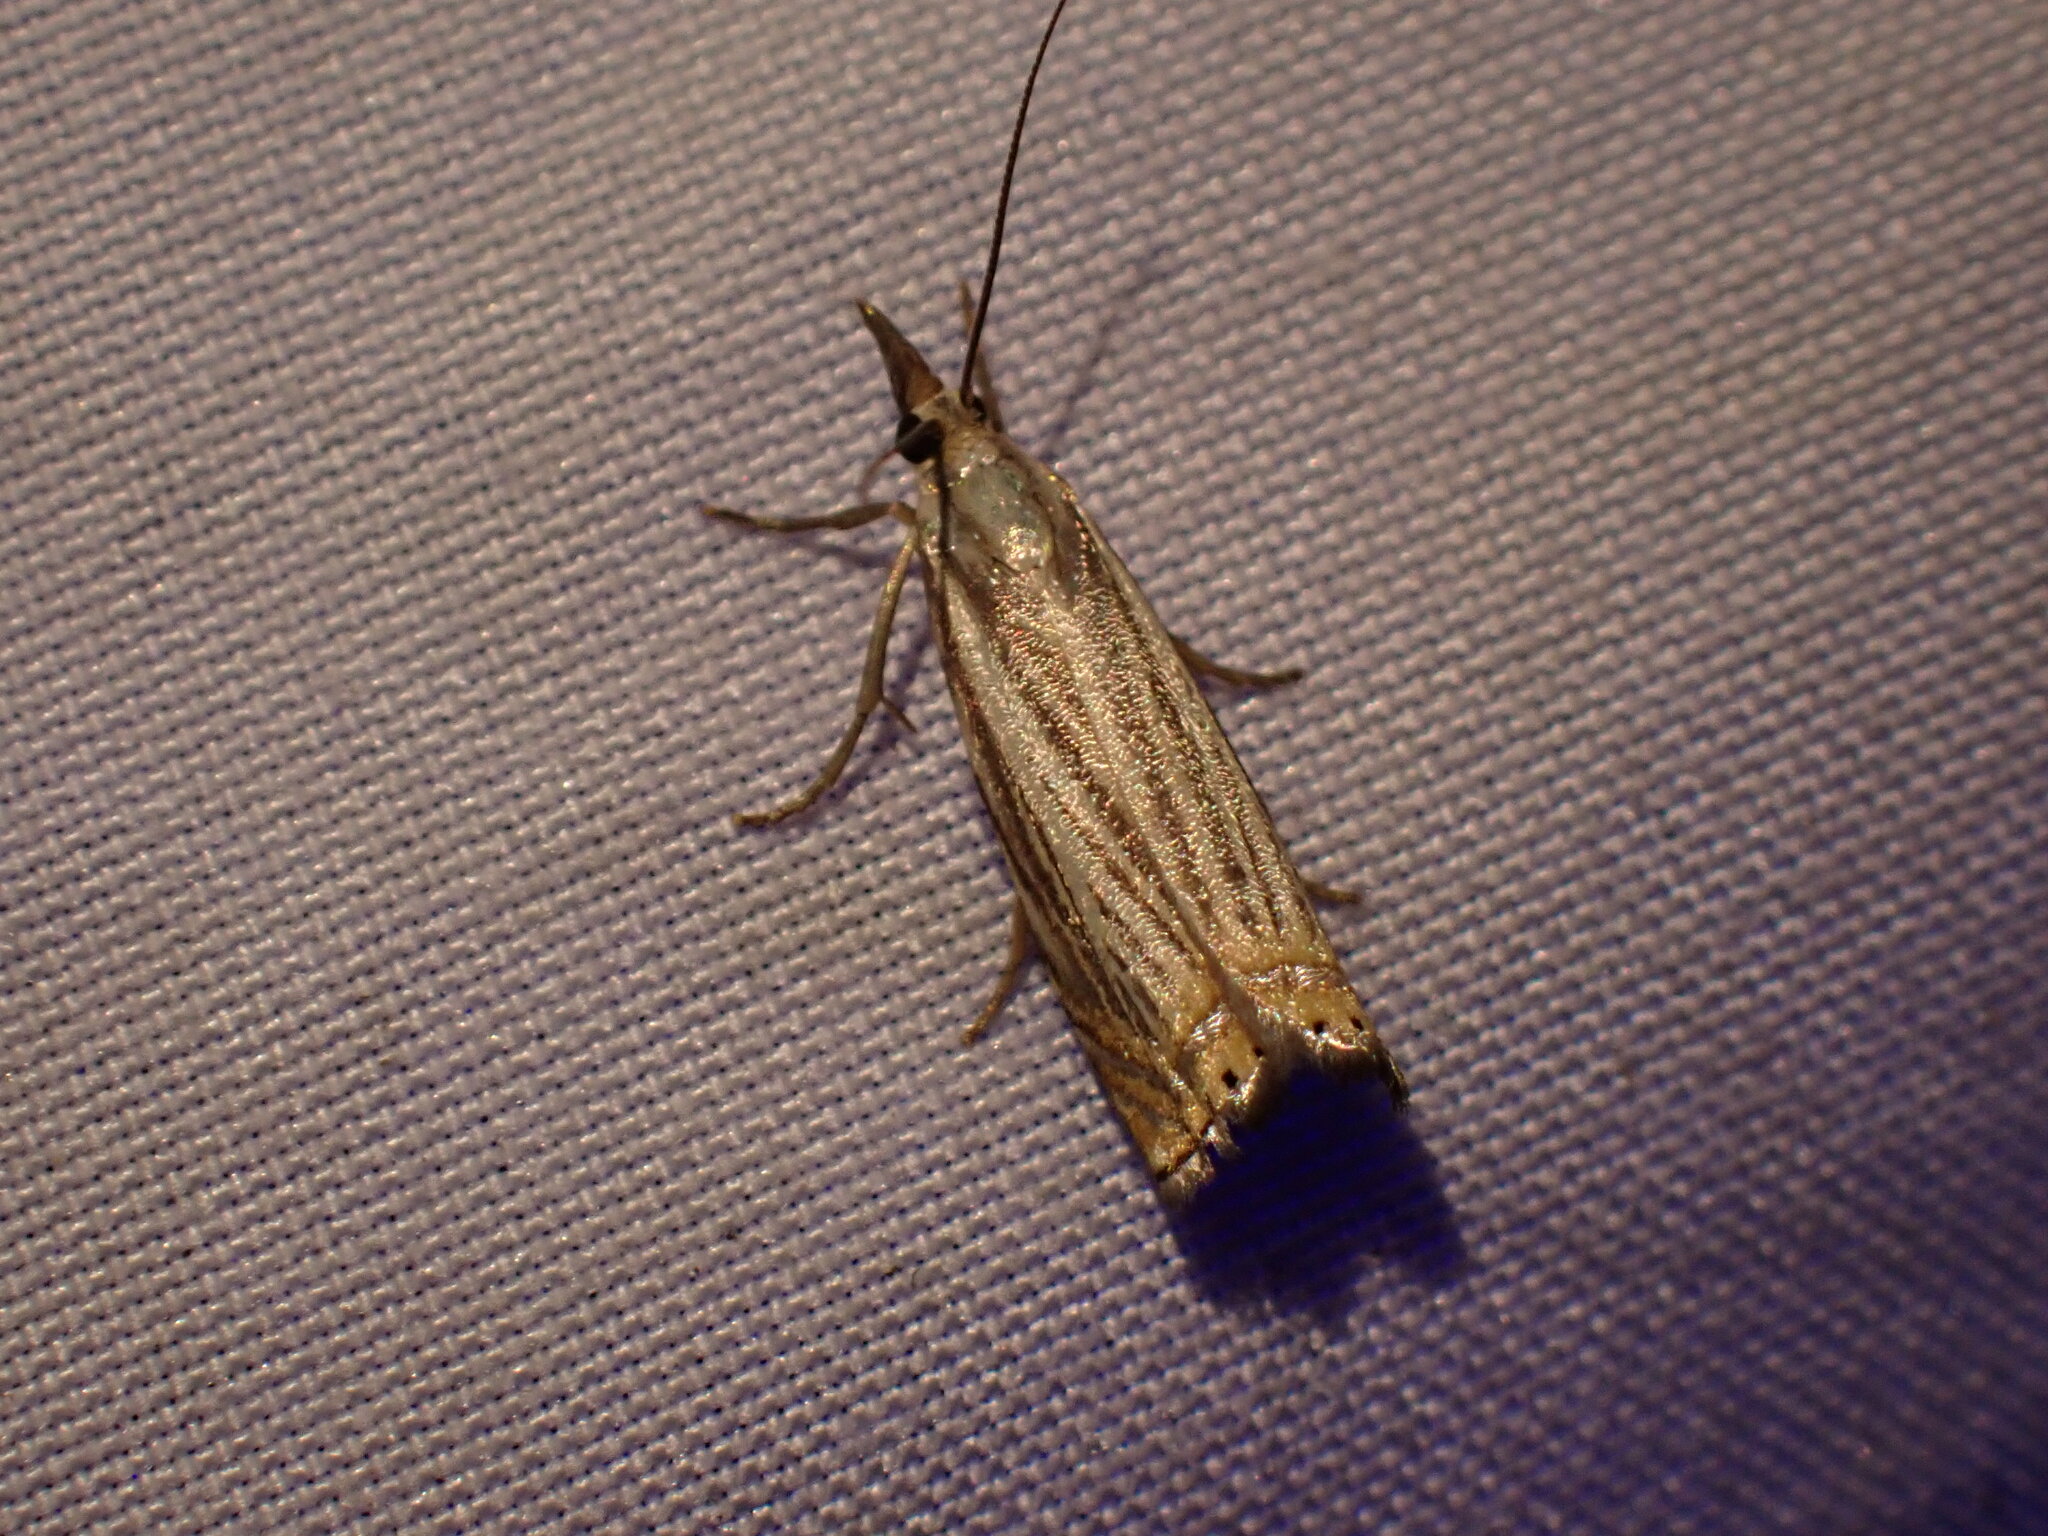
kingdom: Animalia
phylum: Arthropoda
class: Insecta
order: Lepidoptera
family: Crambidae
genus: Chrysoteuchia
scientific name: Chrysoteuchia topiarius
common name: Topiary grass-veneer
